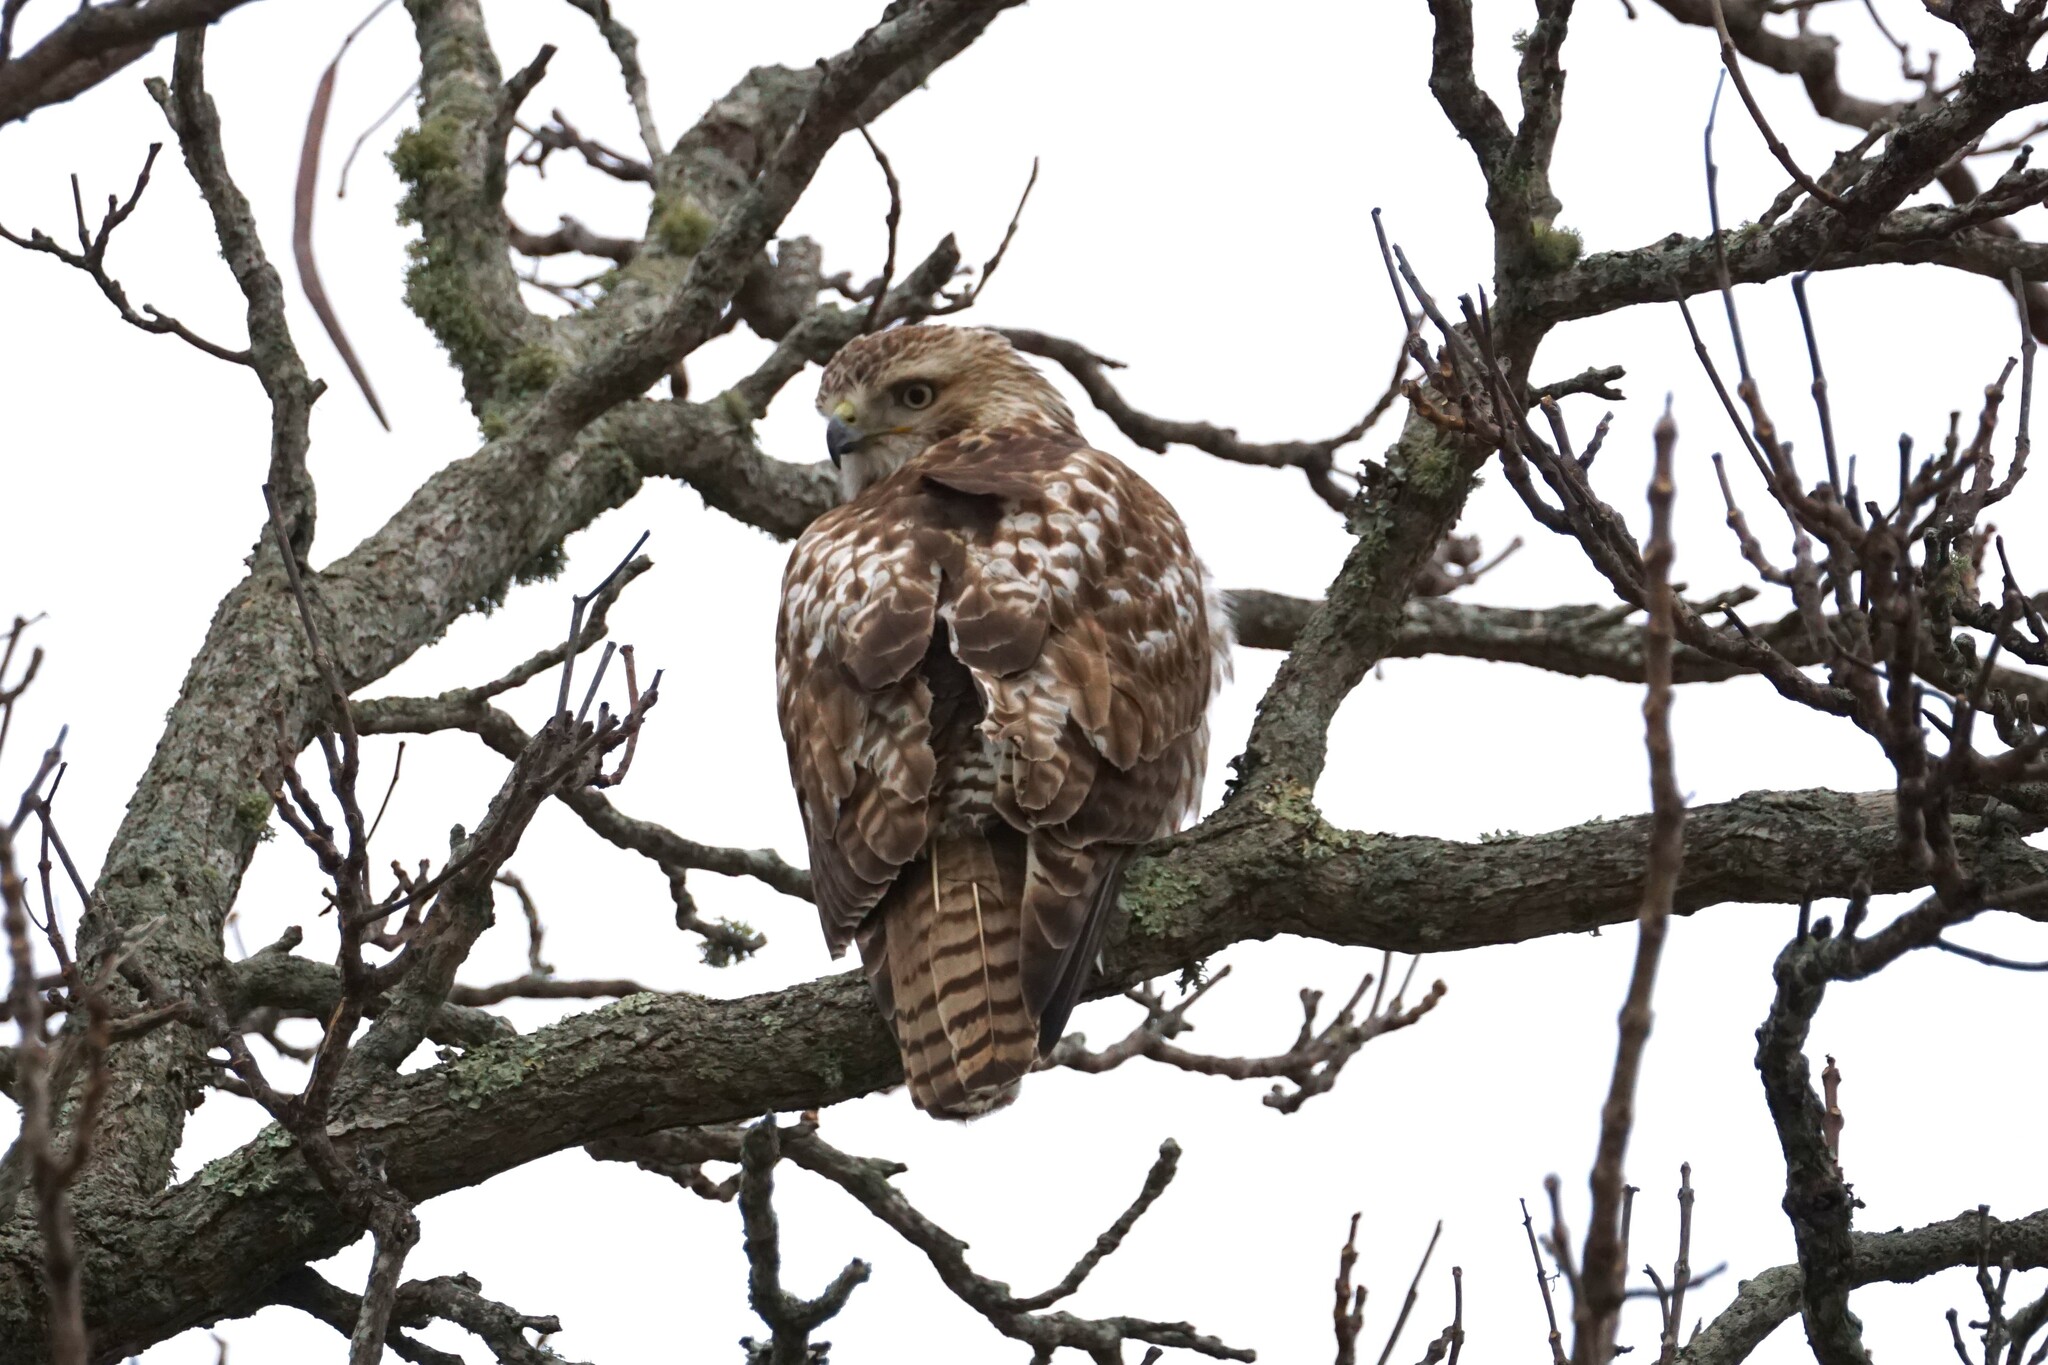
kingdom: Animalia
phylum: Chordata
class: Aves
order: Accipitriformes
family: Accipitridae
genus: Buteo
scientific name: Buteo jamaicensis
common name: Red-tailed hawk
